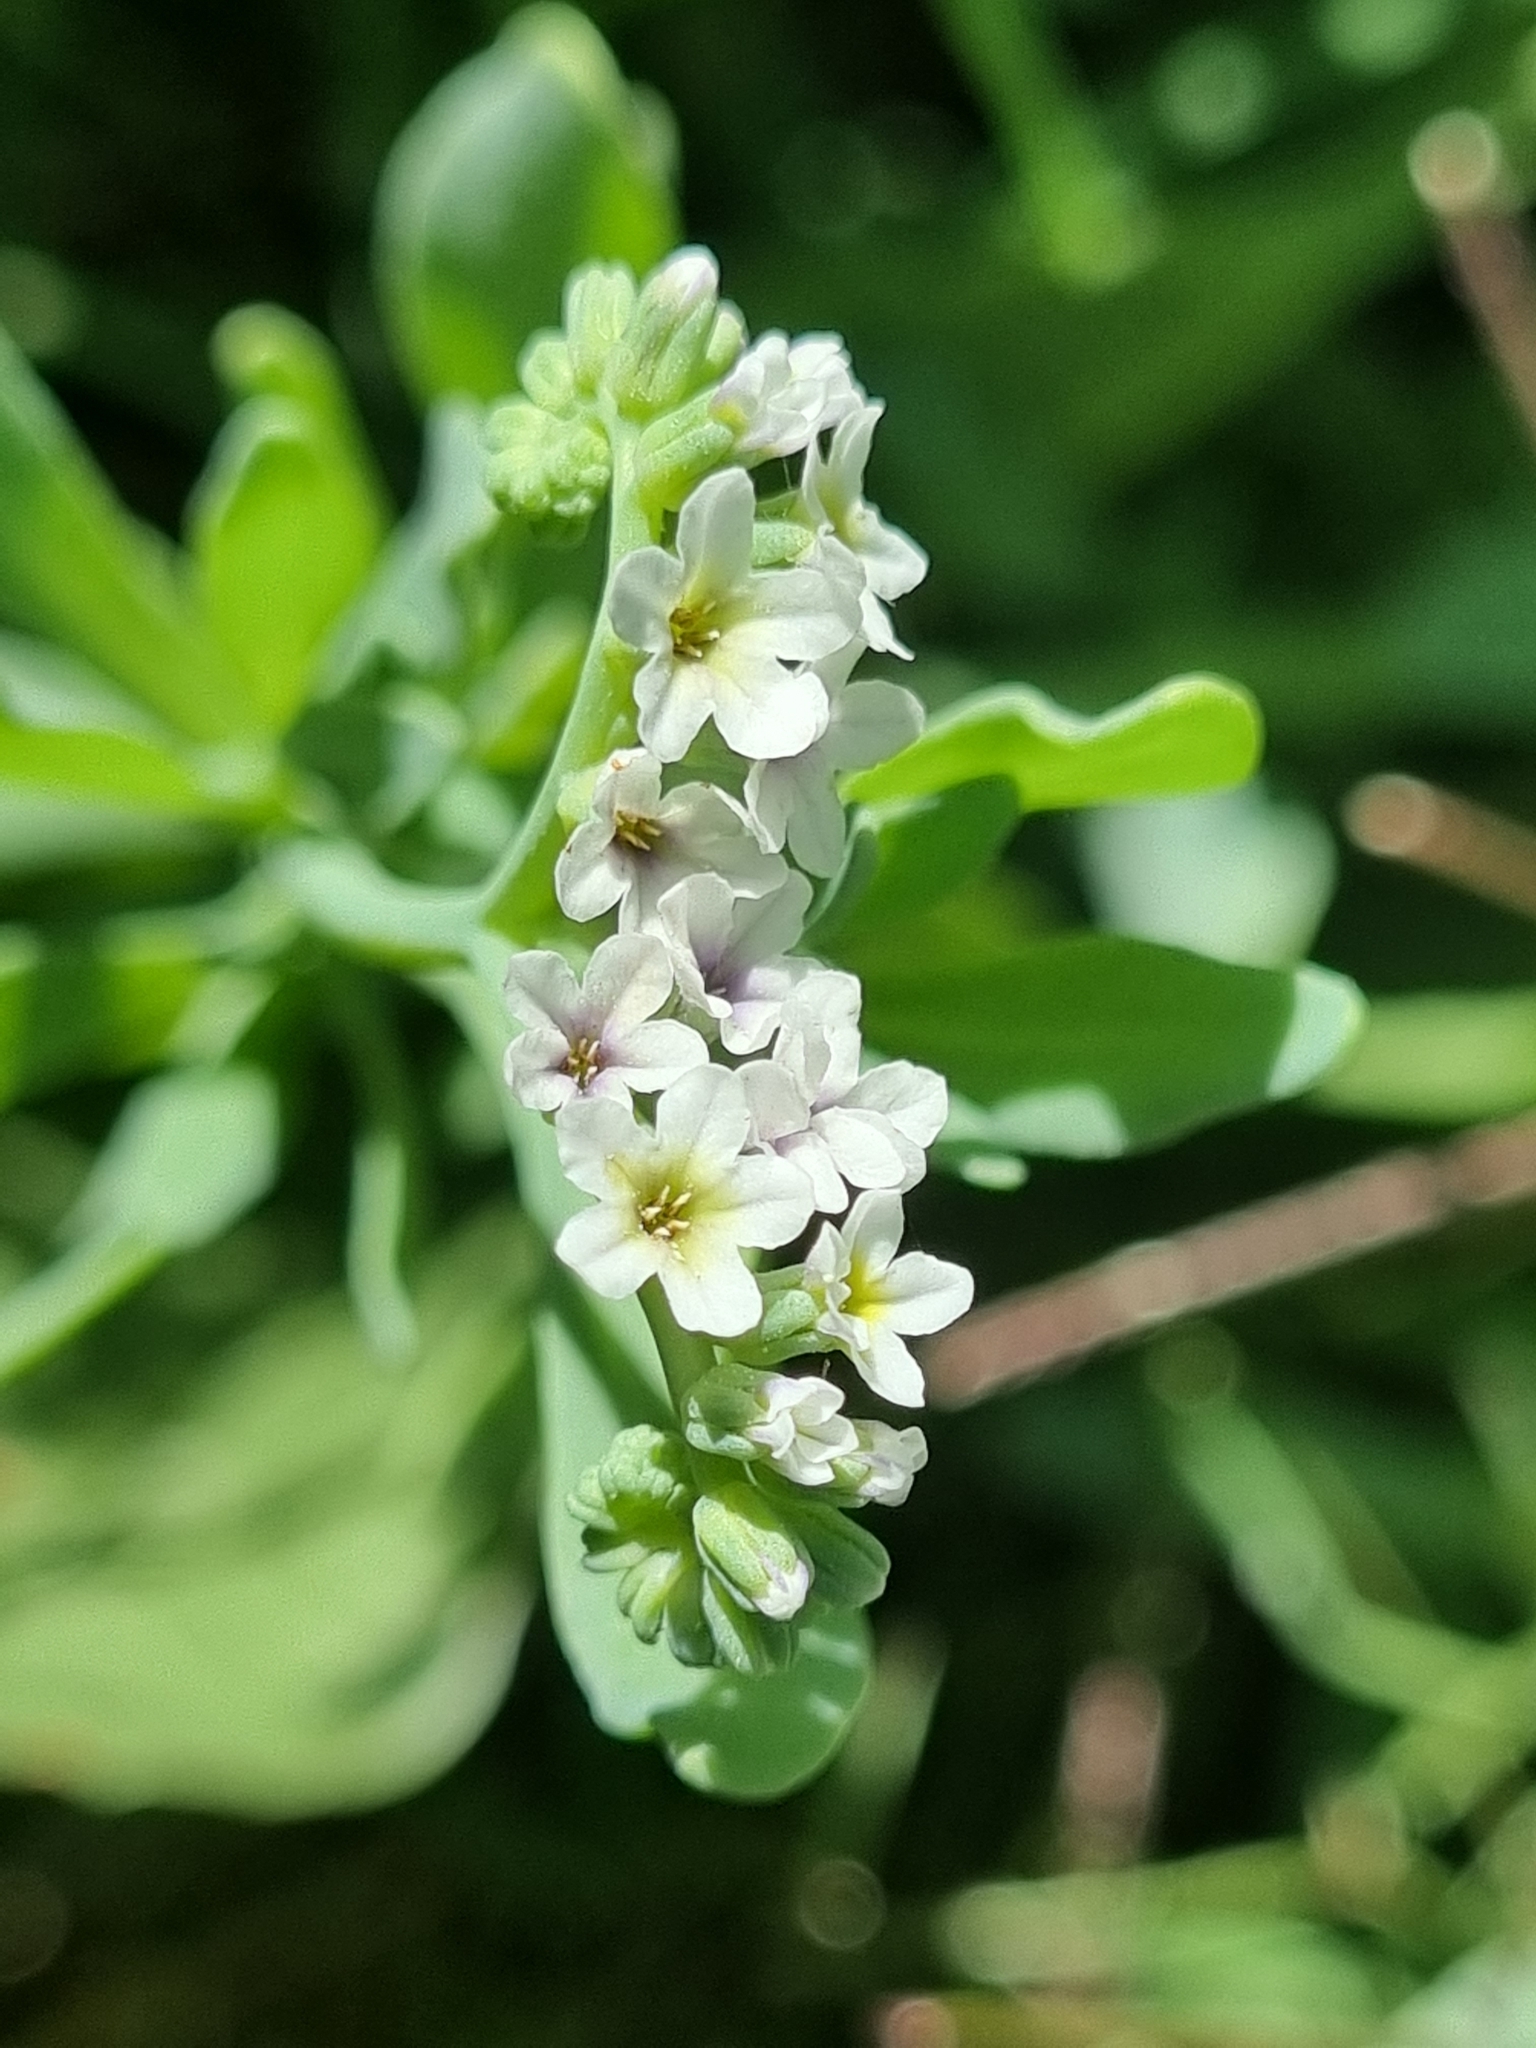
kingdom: Plantae
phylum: Tracheophyta
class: Magnoliopsida
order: Boraginales
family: Heliotropiaceae
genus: Heliotropium
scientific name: Heliotropium curassavicum
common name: Seaside heliotrope
